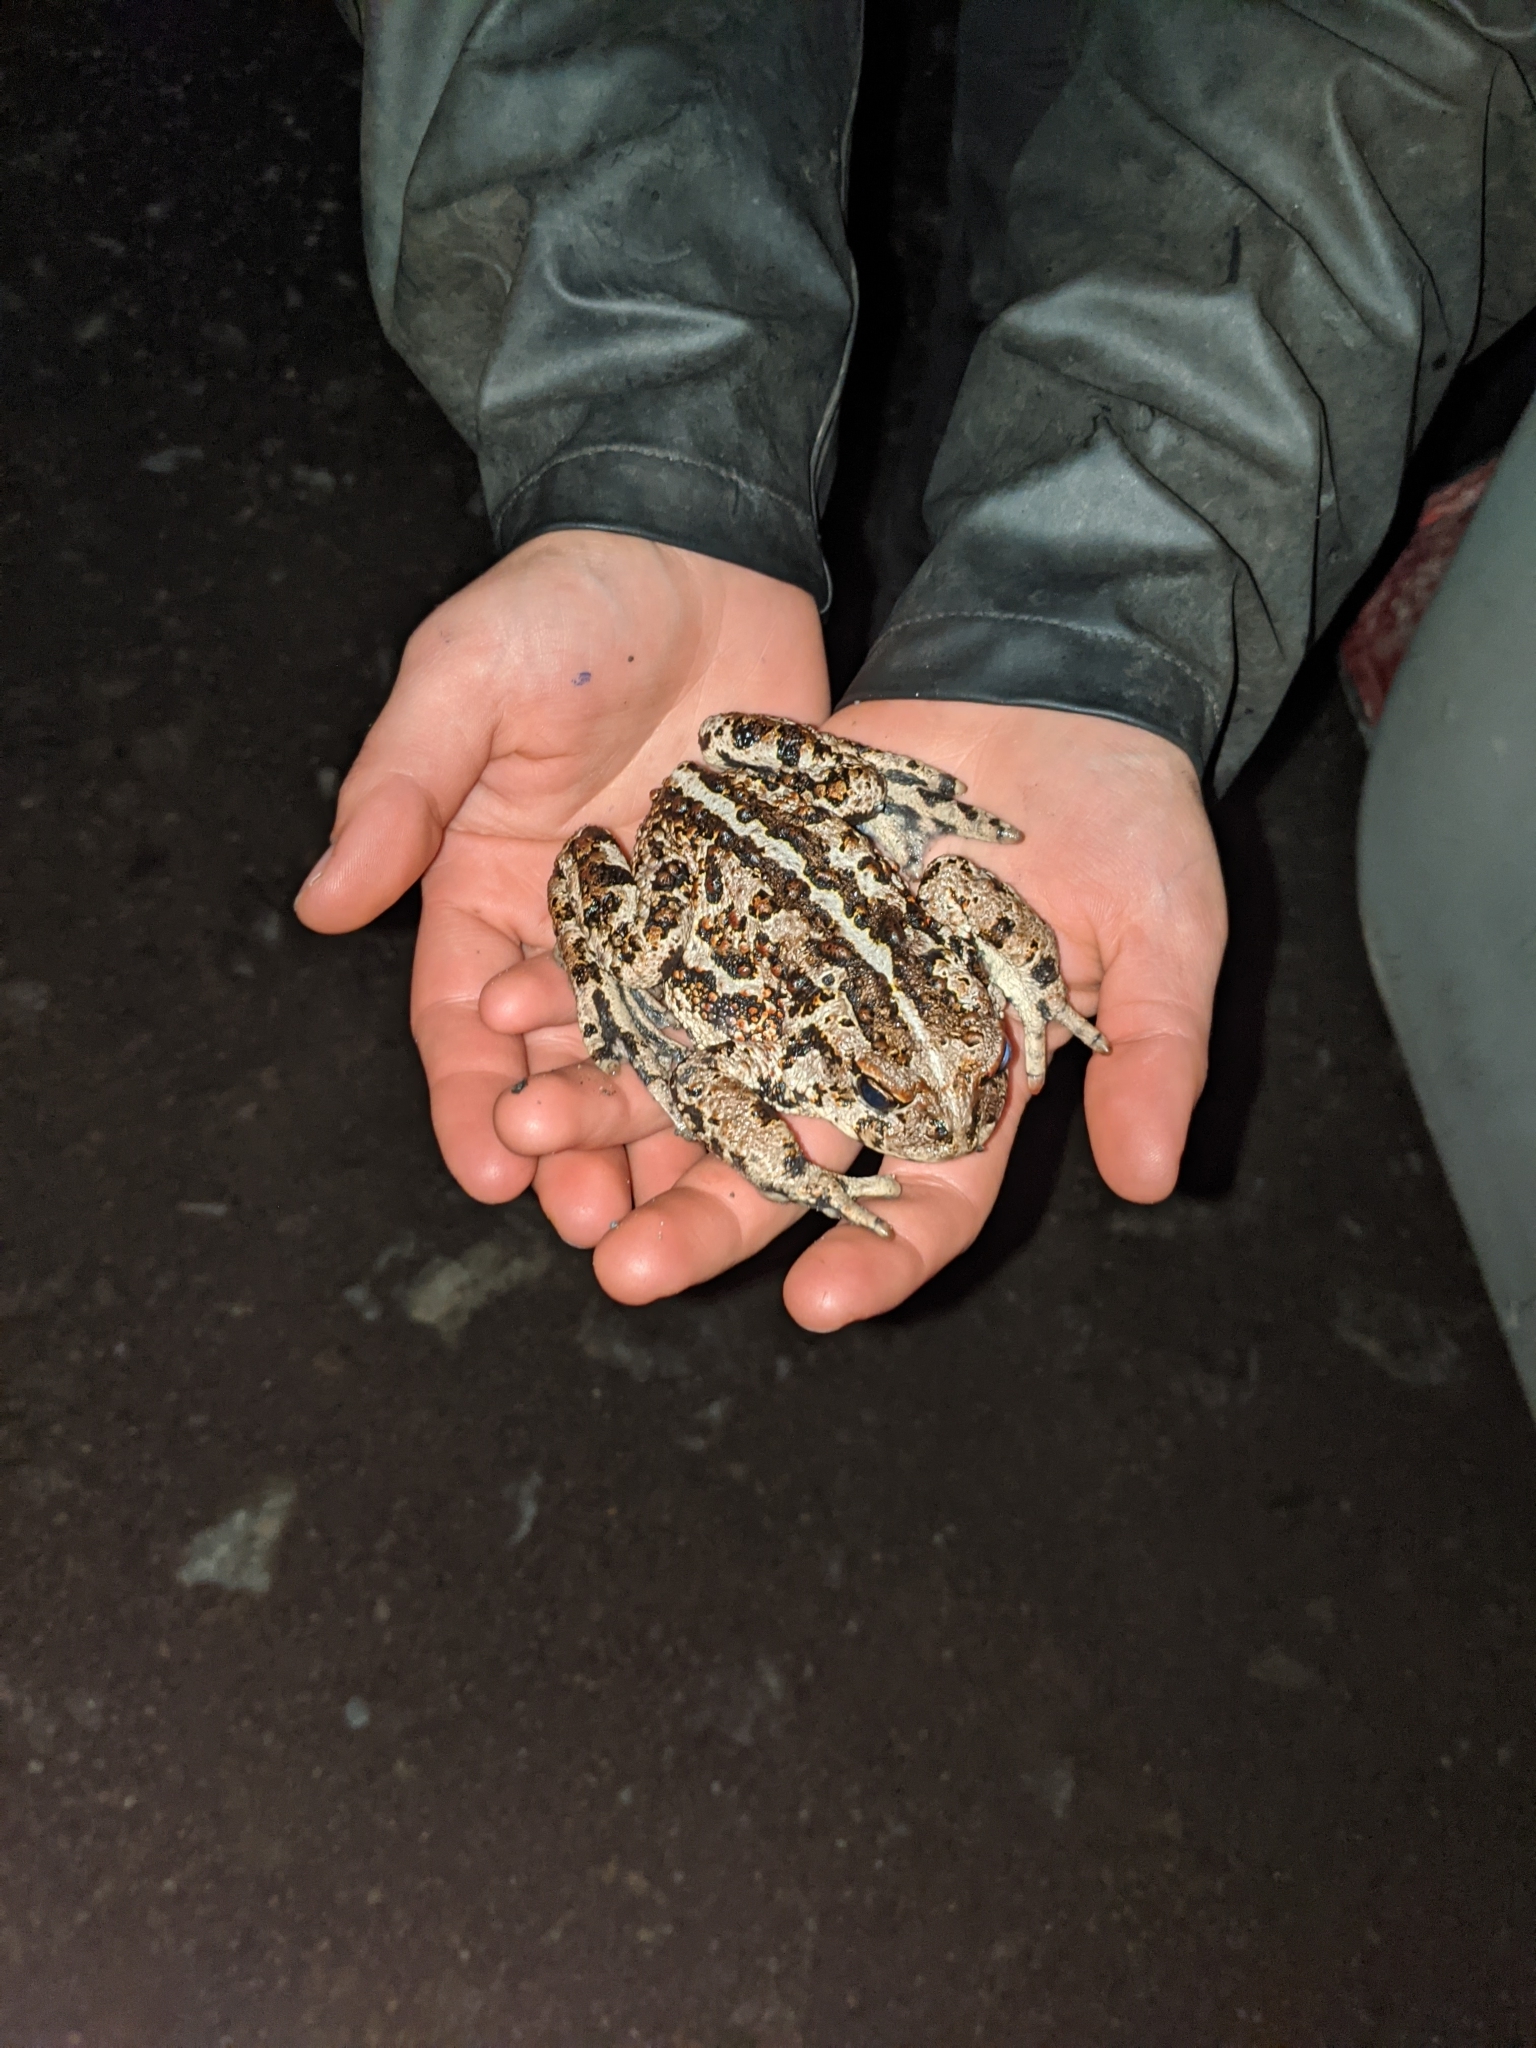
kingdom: Animalia
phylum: Chordata
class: Amphibia
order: Anura
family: Bufonidae
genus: Anaxyrus
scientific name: Anaxyrus boreas
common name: Western toad
